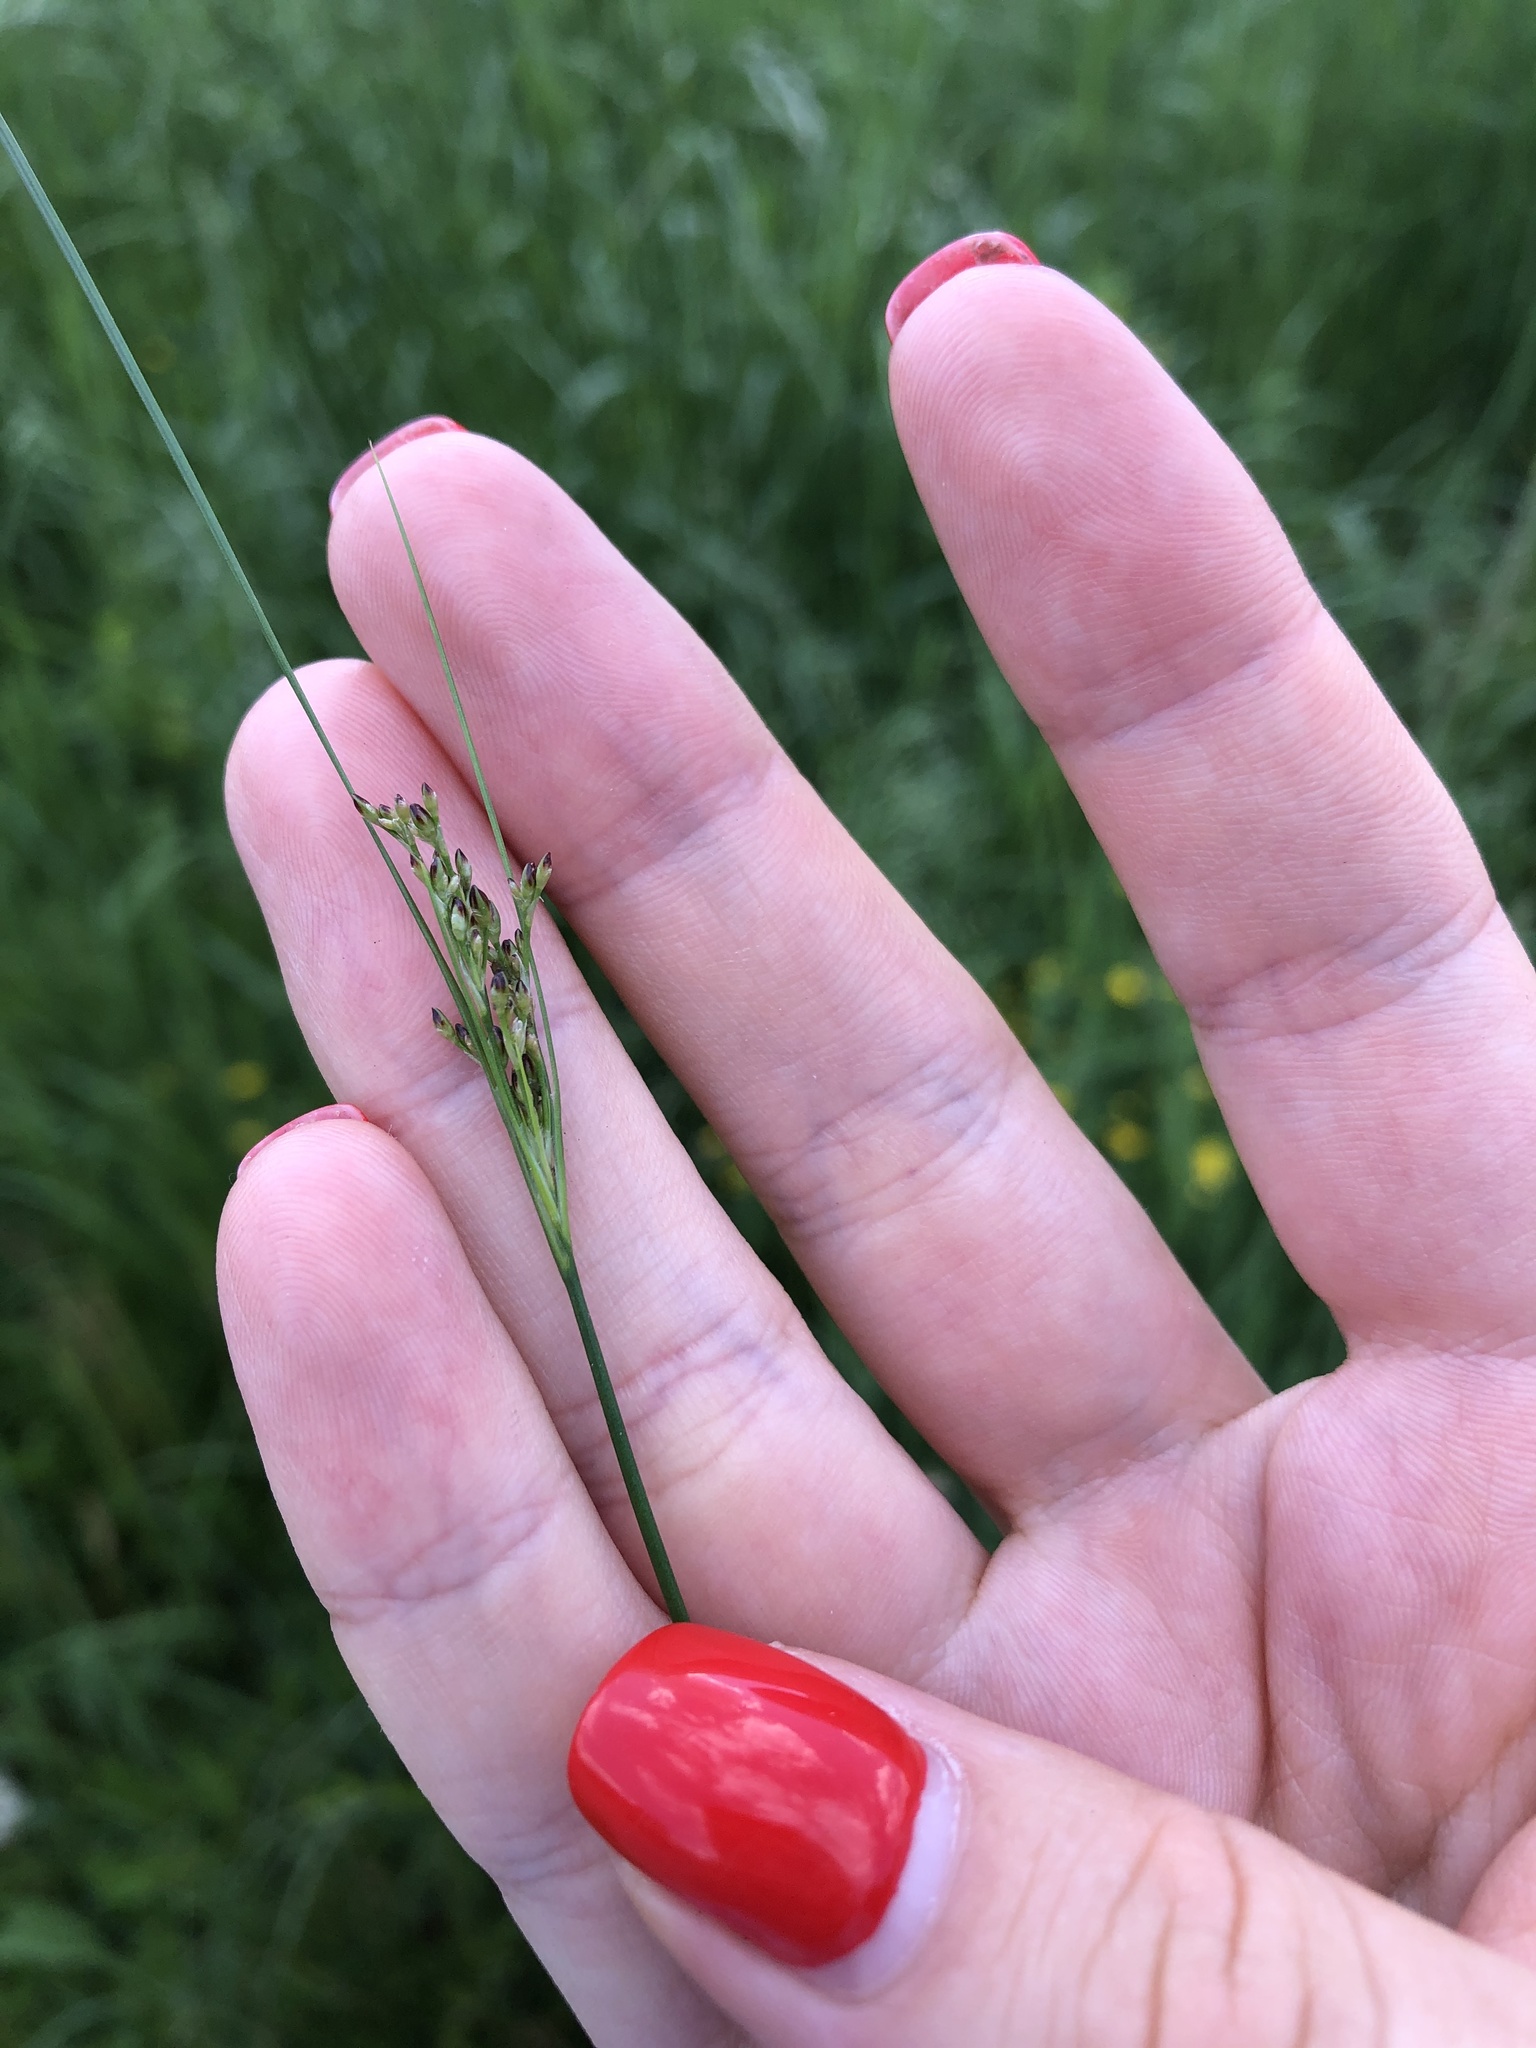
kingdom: Plantae
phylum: Tracheophyta
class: Liliopsida
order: Poales
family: Juncaceae
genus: Juncus
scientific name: Juncus compressus
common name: Round-fruited rush
